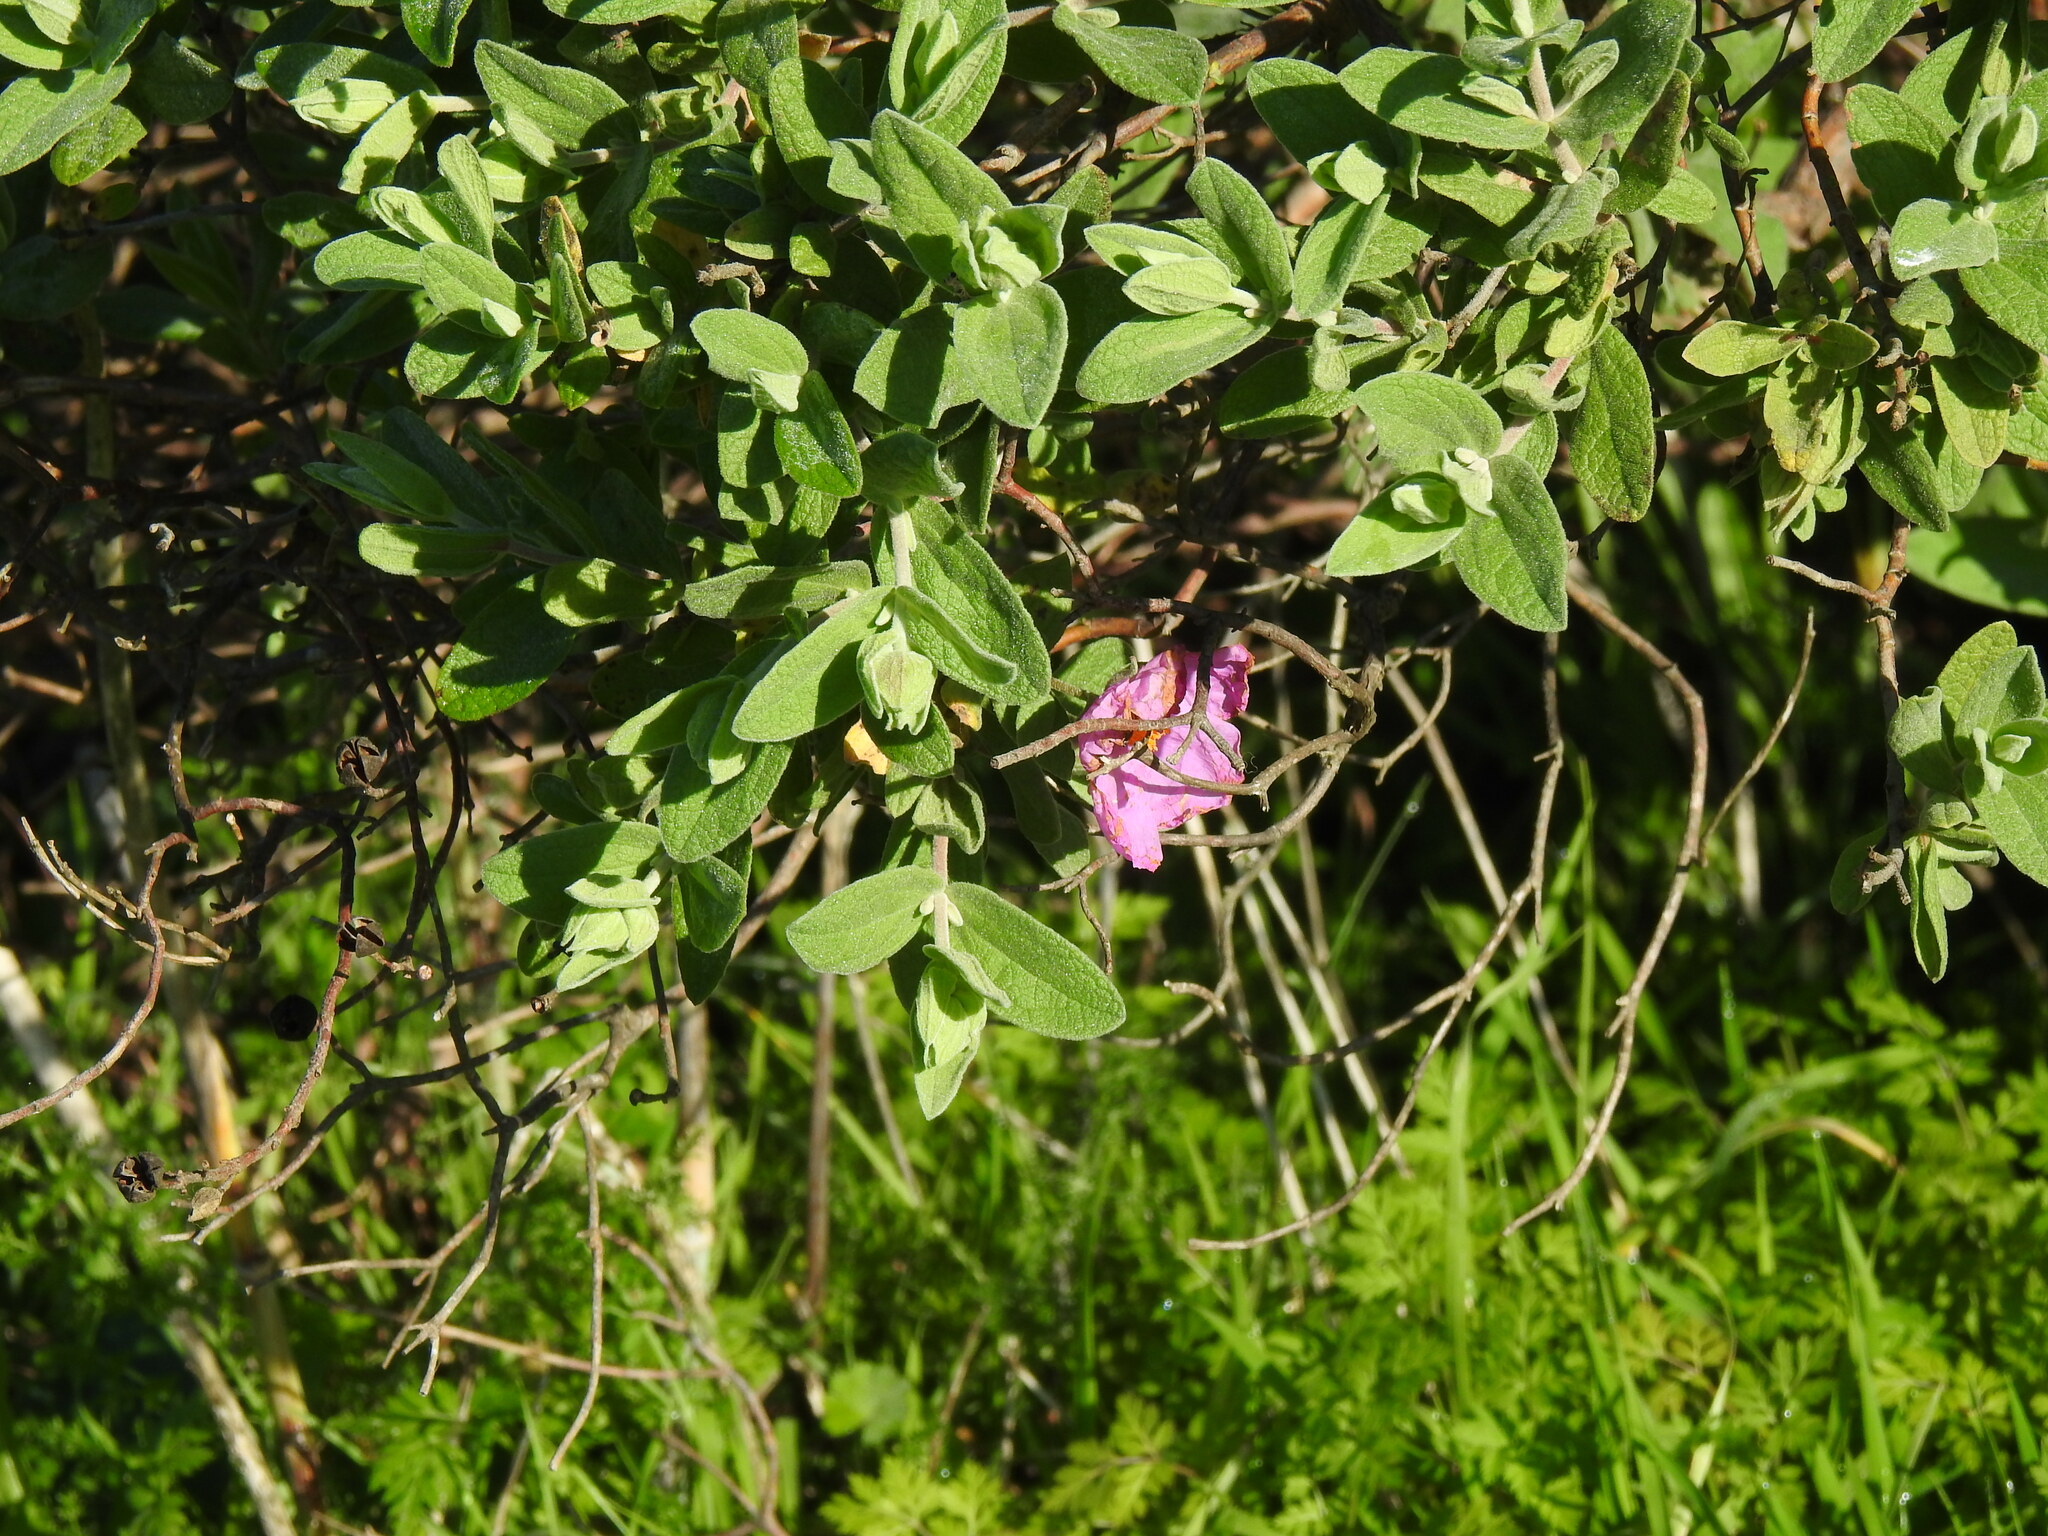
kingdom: Plantae
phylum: Tracheophyta
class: Magnoliopsida
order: Malvales
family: Cistaceae
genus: Cistus
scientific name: Cistus albidus
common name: White-leaf rock-rose
